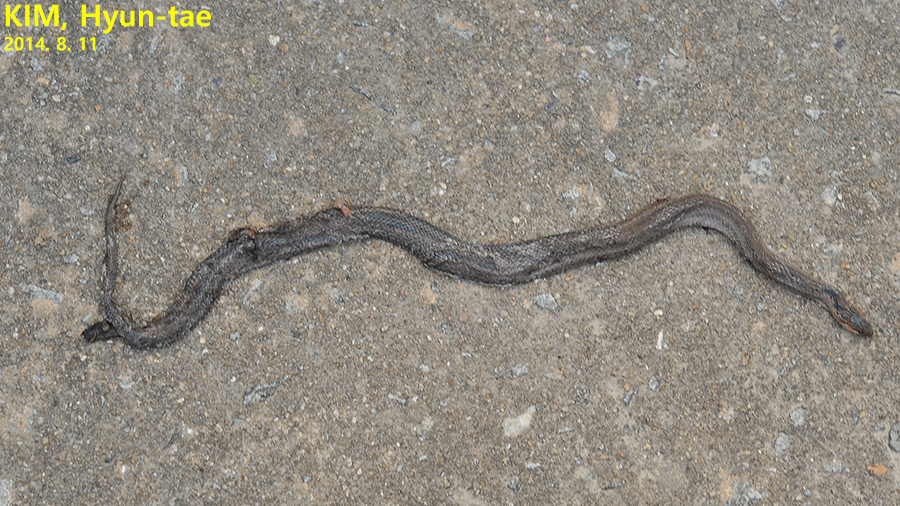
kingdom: Animalia
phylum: Chordata
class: Squamata
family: Colubridae
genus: Oocatochus
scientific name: Oocatochus rufodorsatus
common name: Frog-eating rat snake
